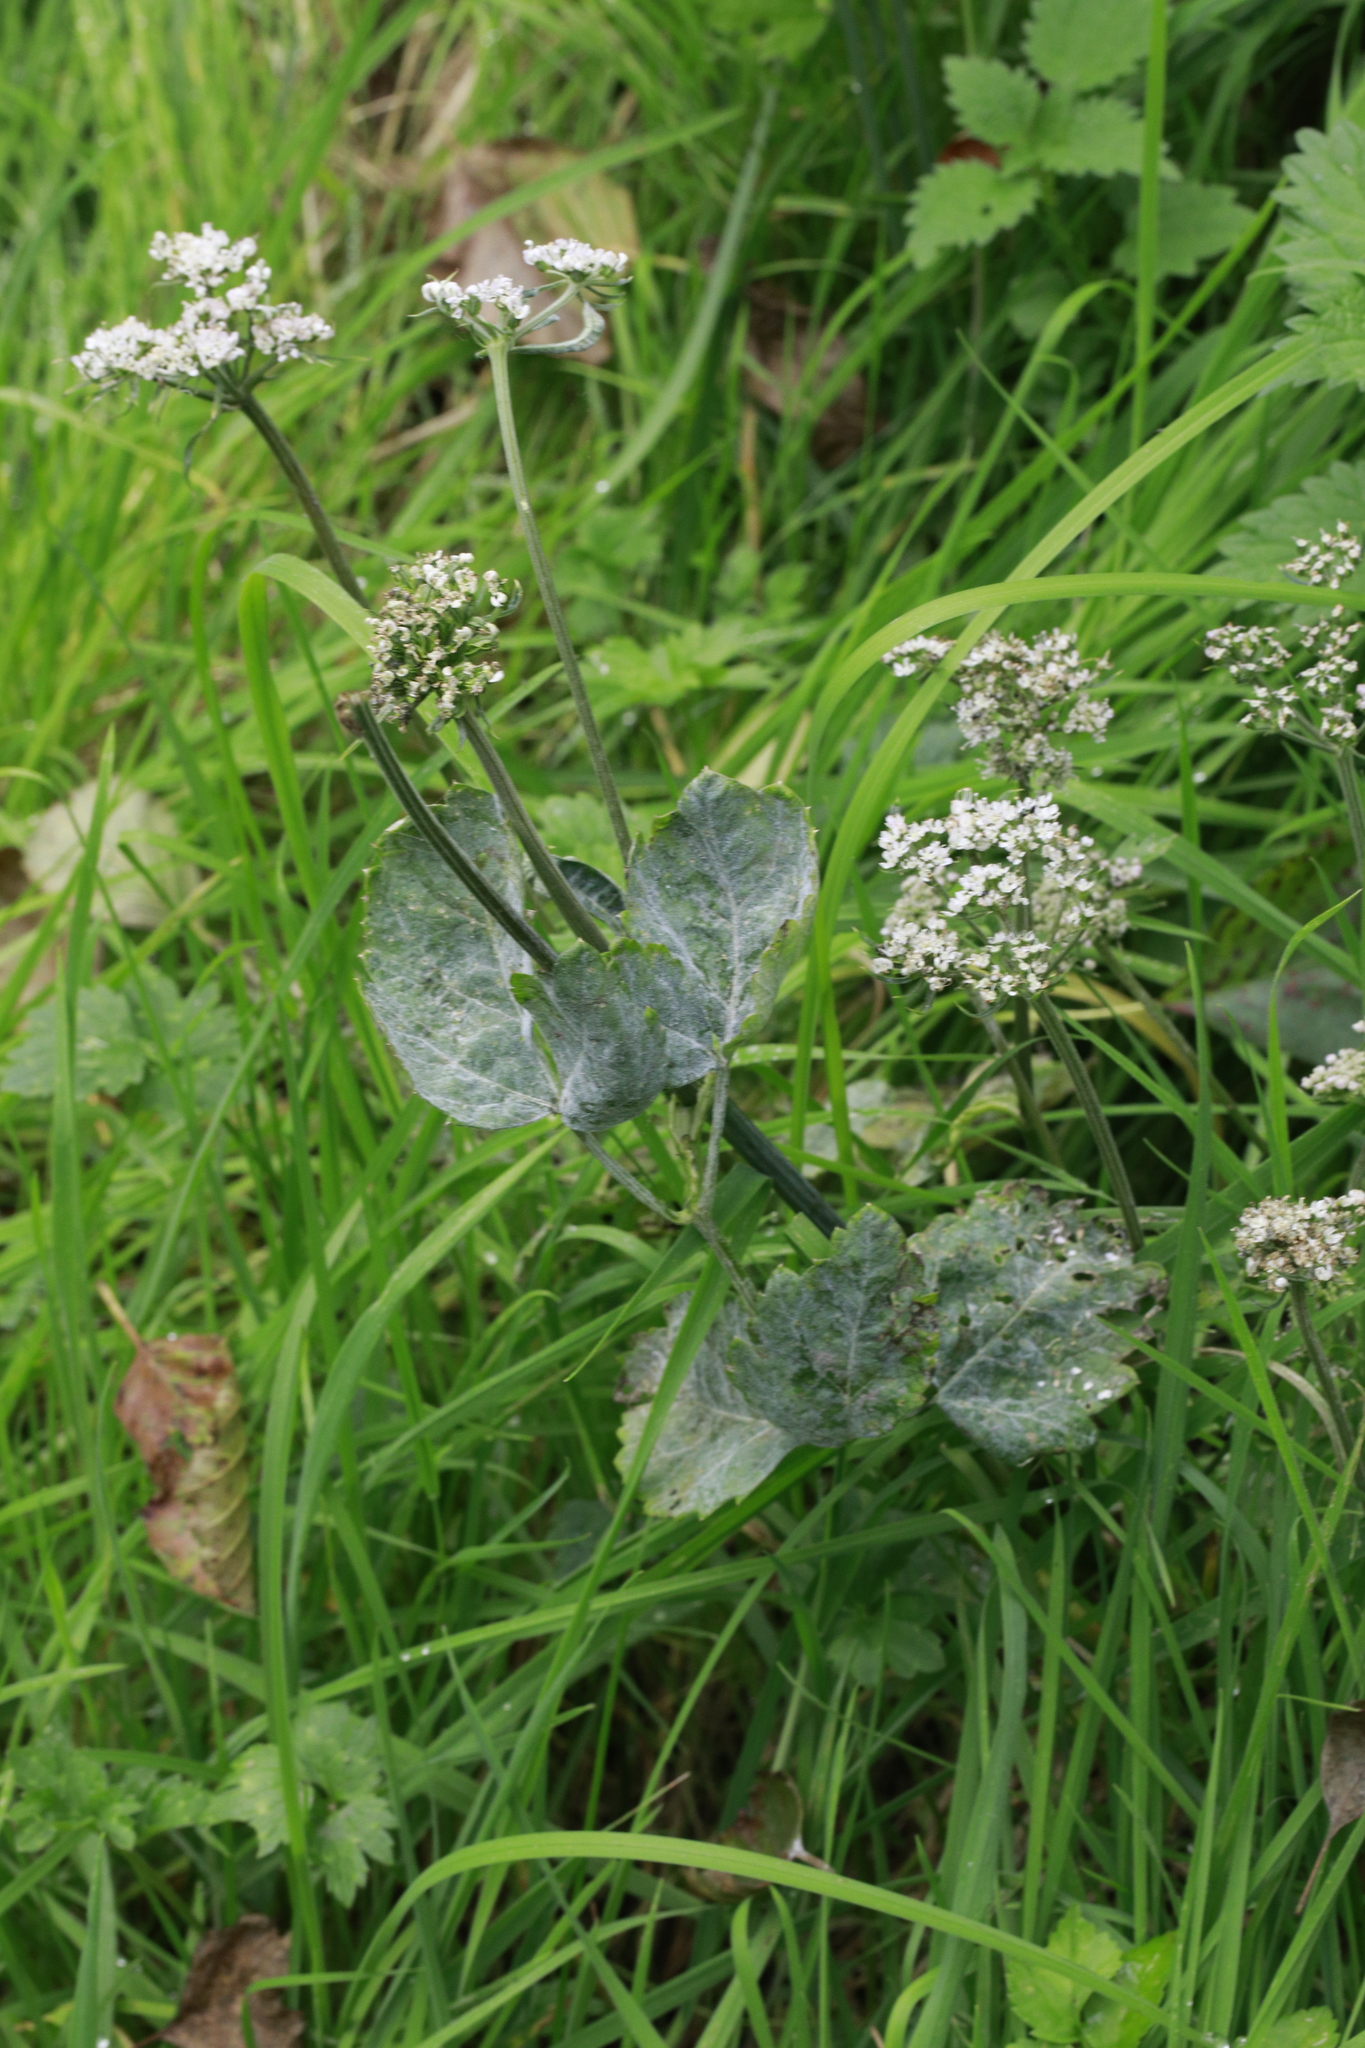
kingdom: Fungi
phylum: Ascomycota
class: Leotiomycetes
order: Helotiales
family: Erysiphaceae
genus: Erysiphe
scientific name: Erysiphe heraclei
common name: Umbellifer mildew
